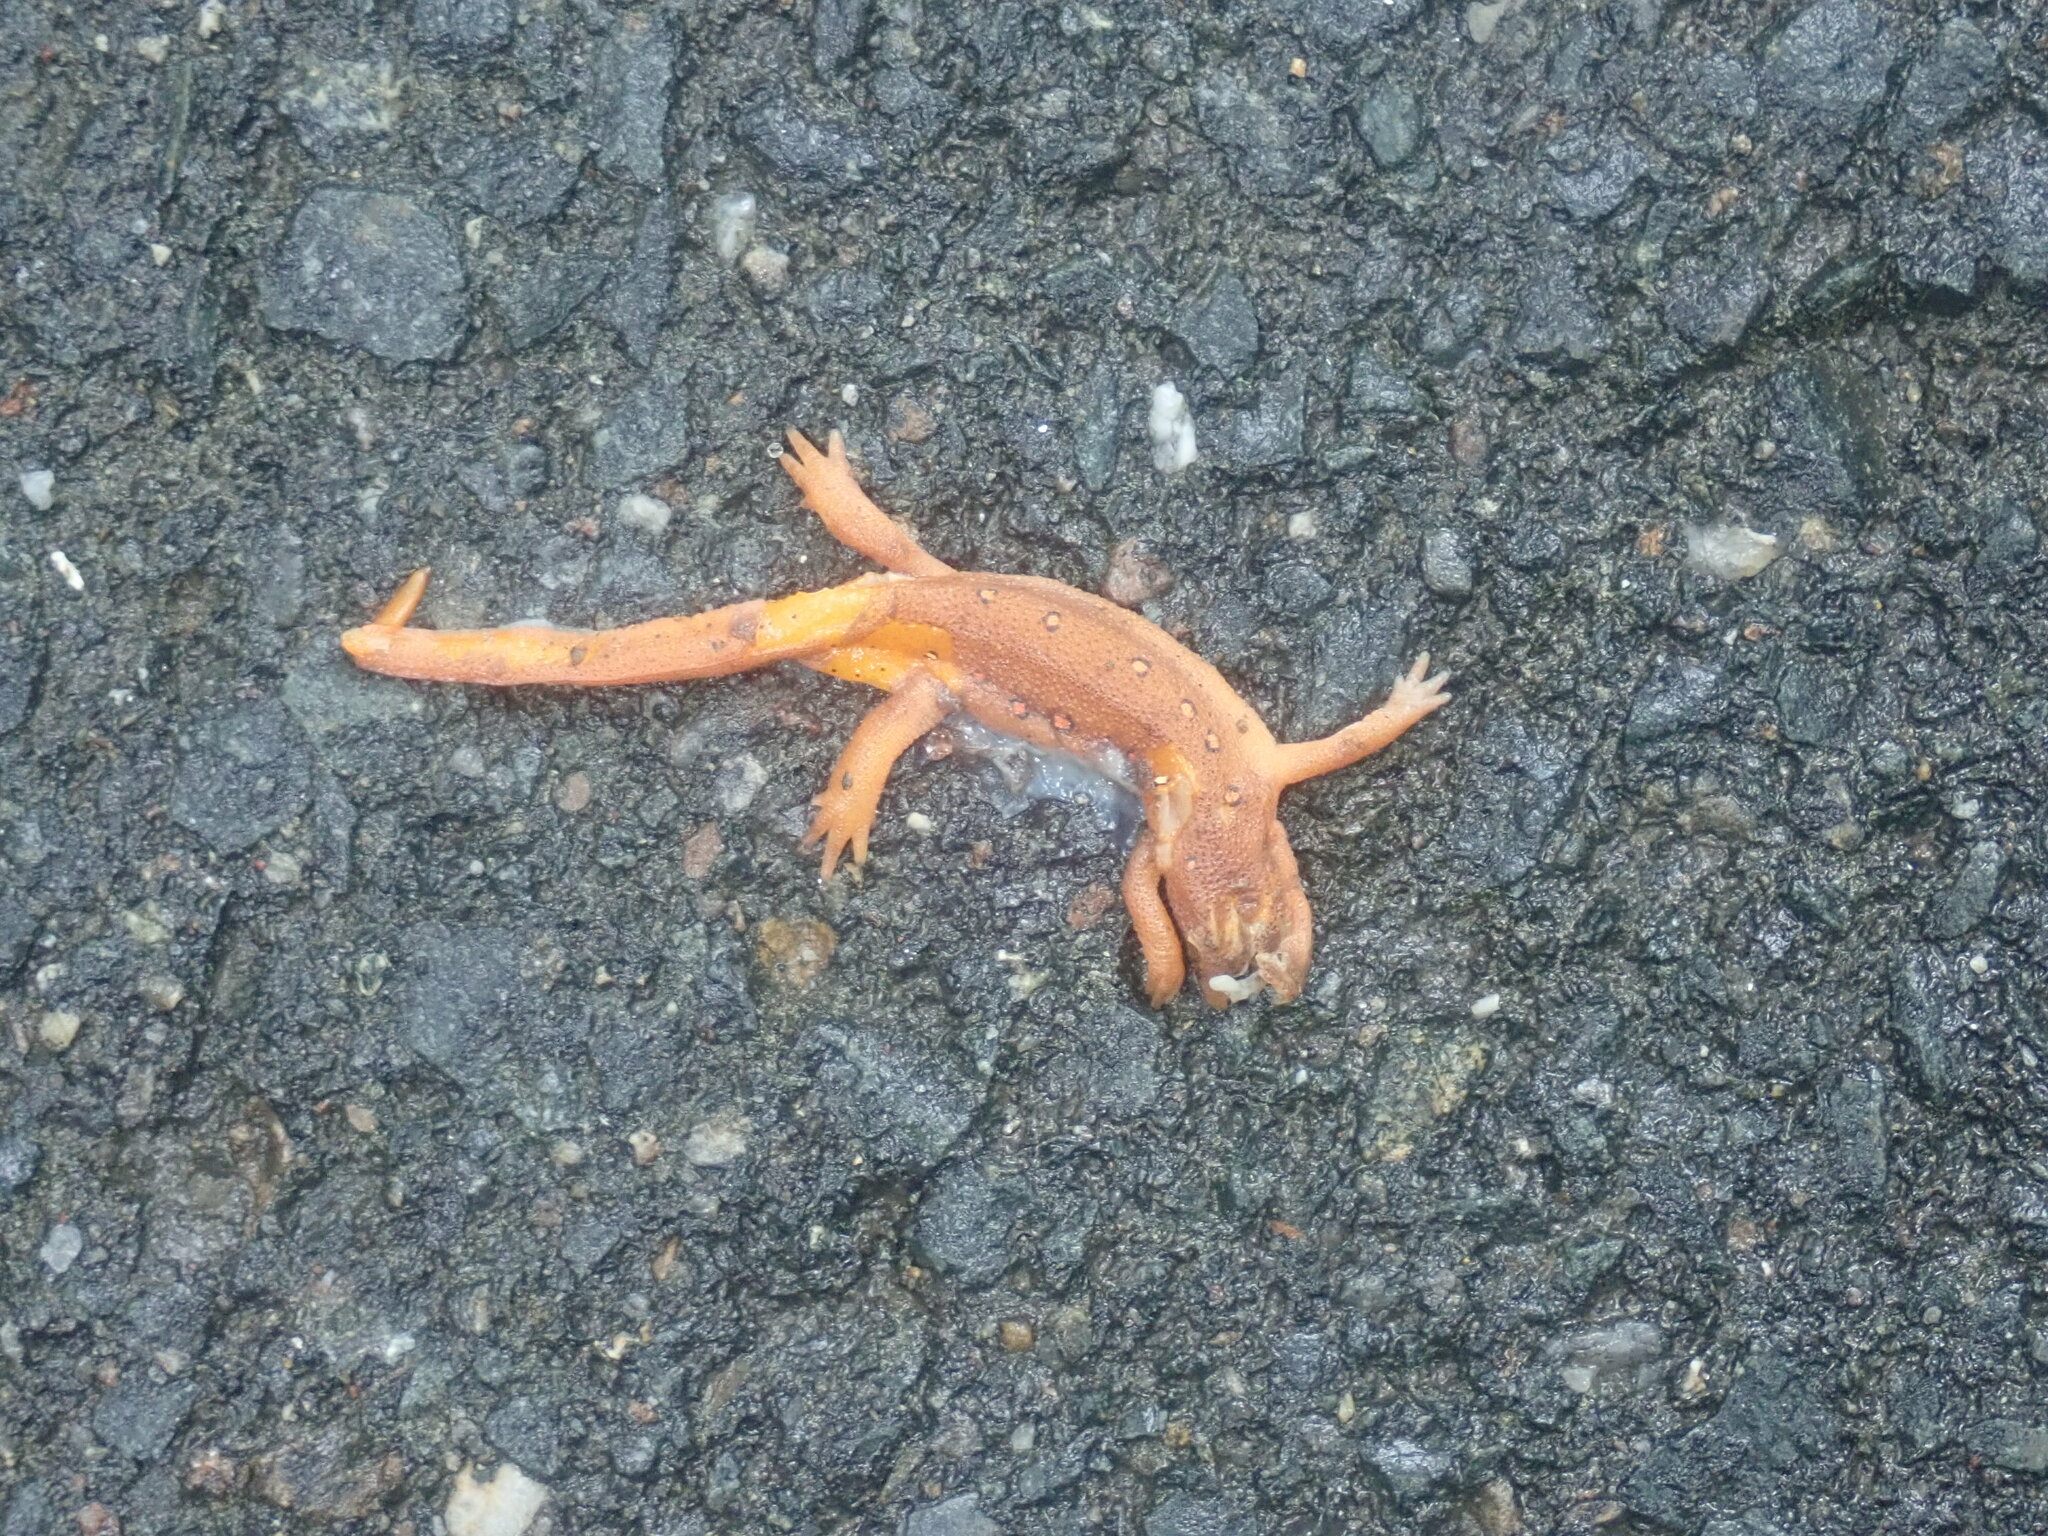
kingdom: Animalia
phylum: Chordata
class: Amphibia
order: Caudata
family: Salamandridae
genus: Notophthalmus
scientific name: Notophthalmus viridescens
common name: Eastern newt
